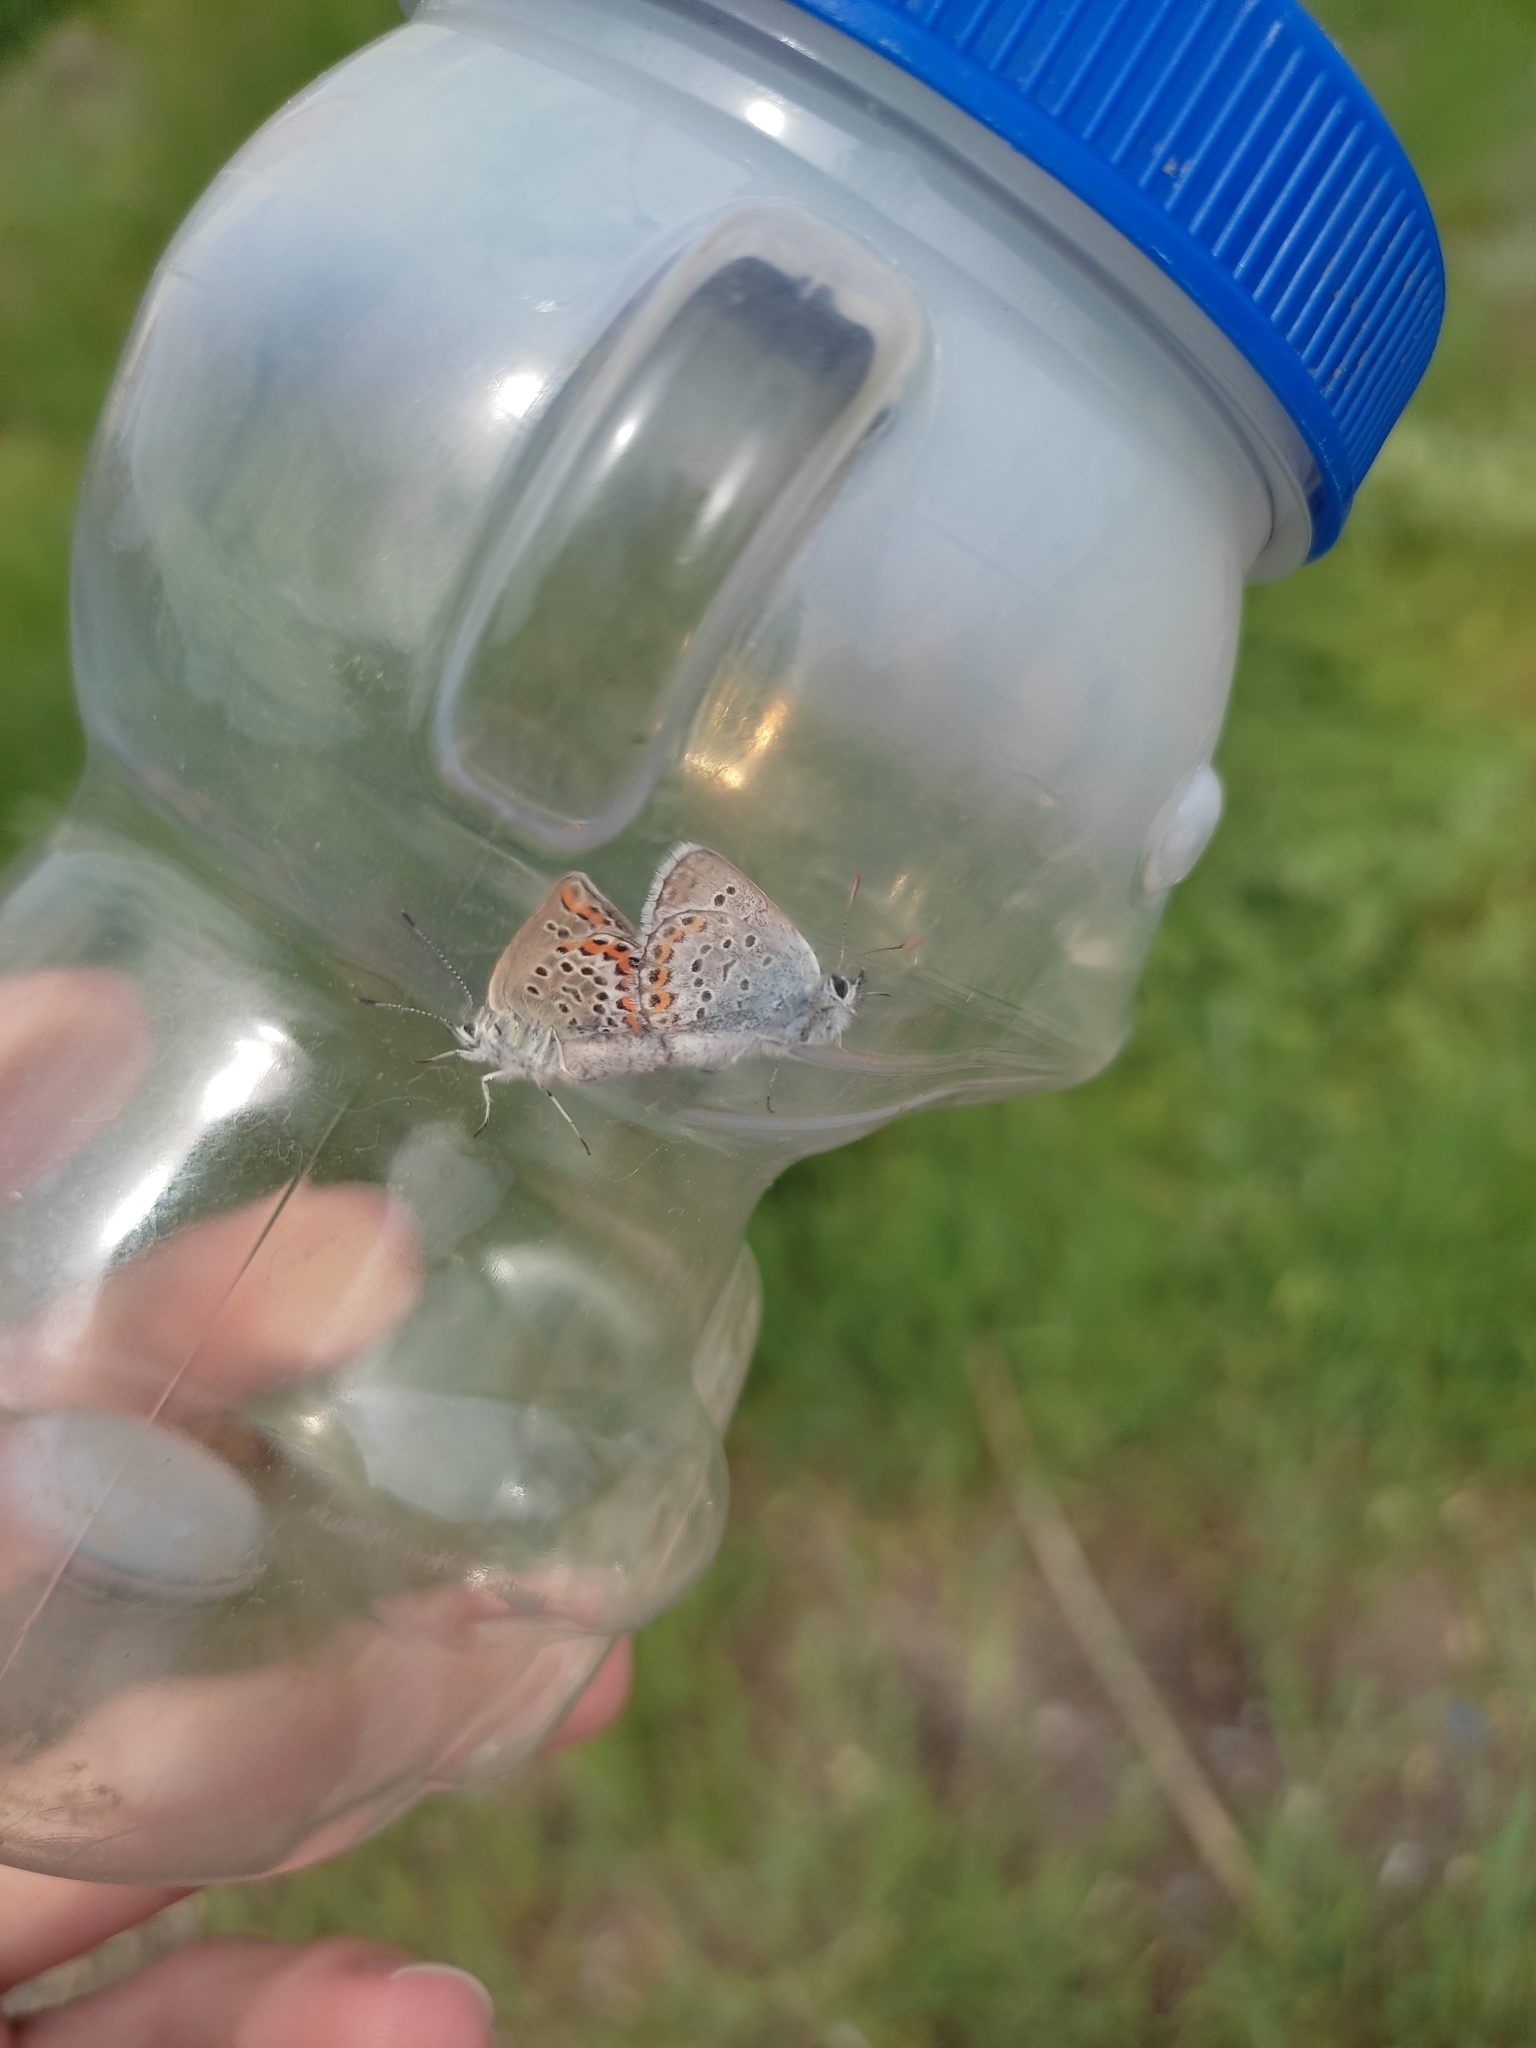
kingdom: Animalia
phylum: Arthropoda
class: Insecta
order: Lepidoptera
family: Lycaenidae
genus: Plebejus
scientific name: Plebejus argus
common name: Silver-studded blue
